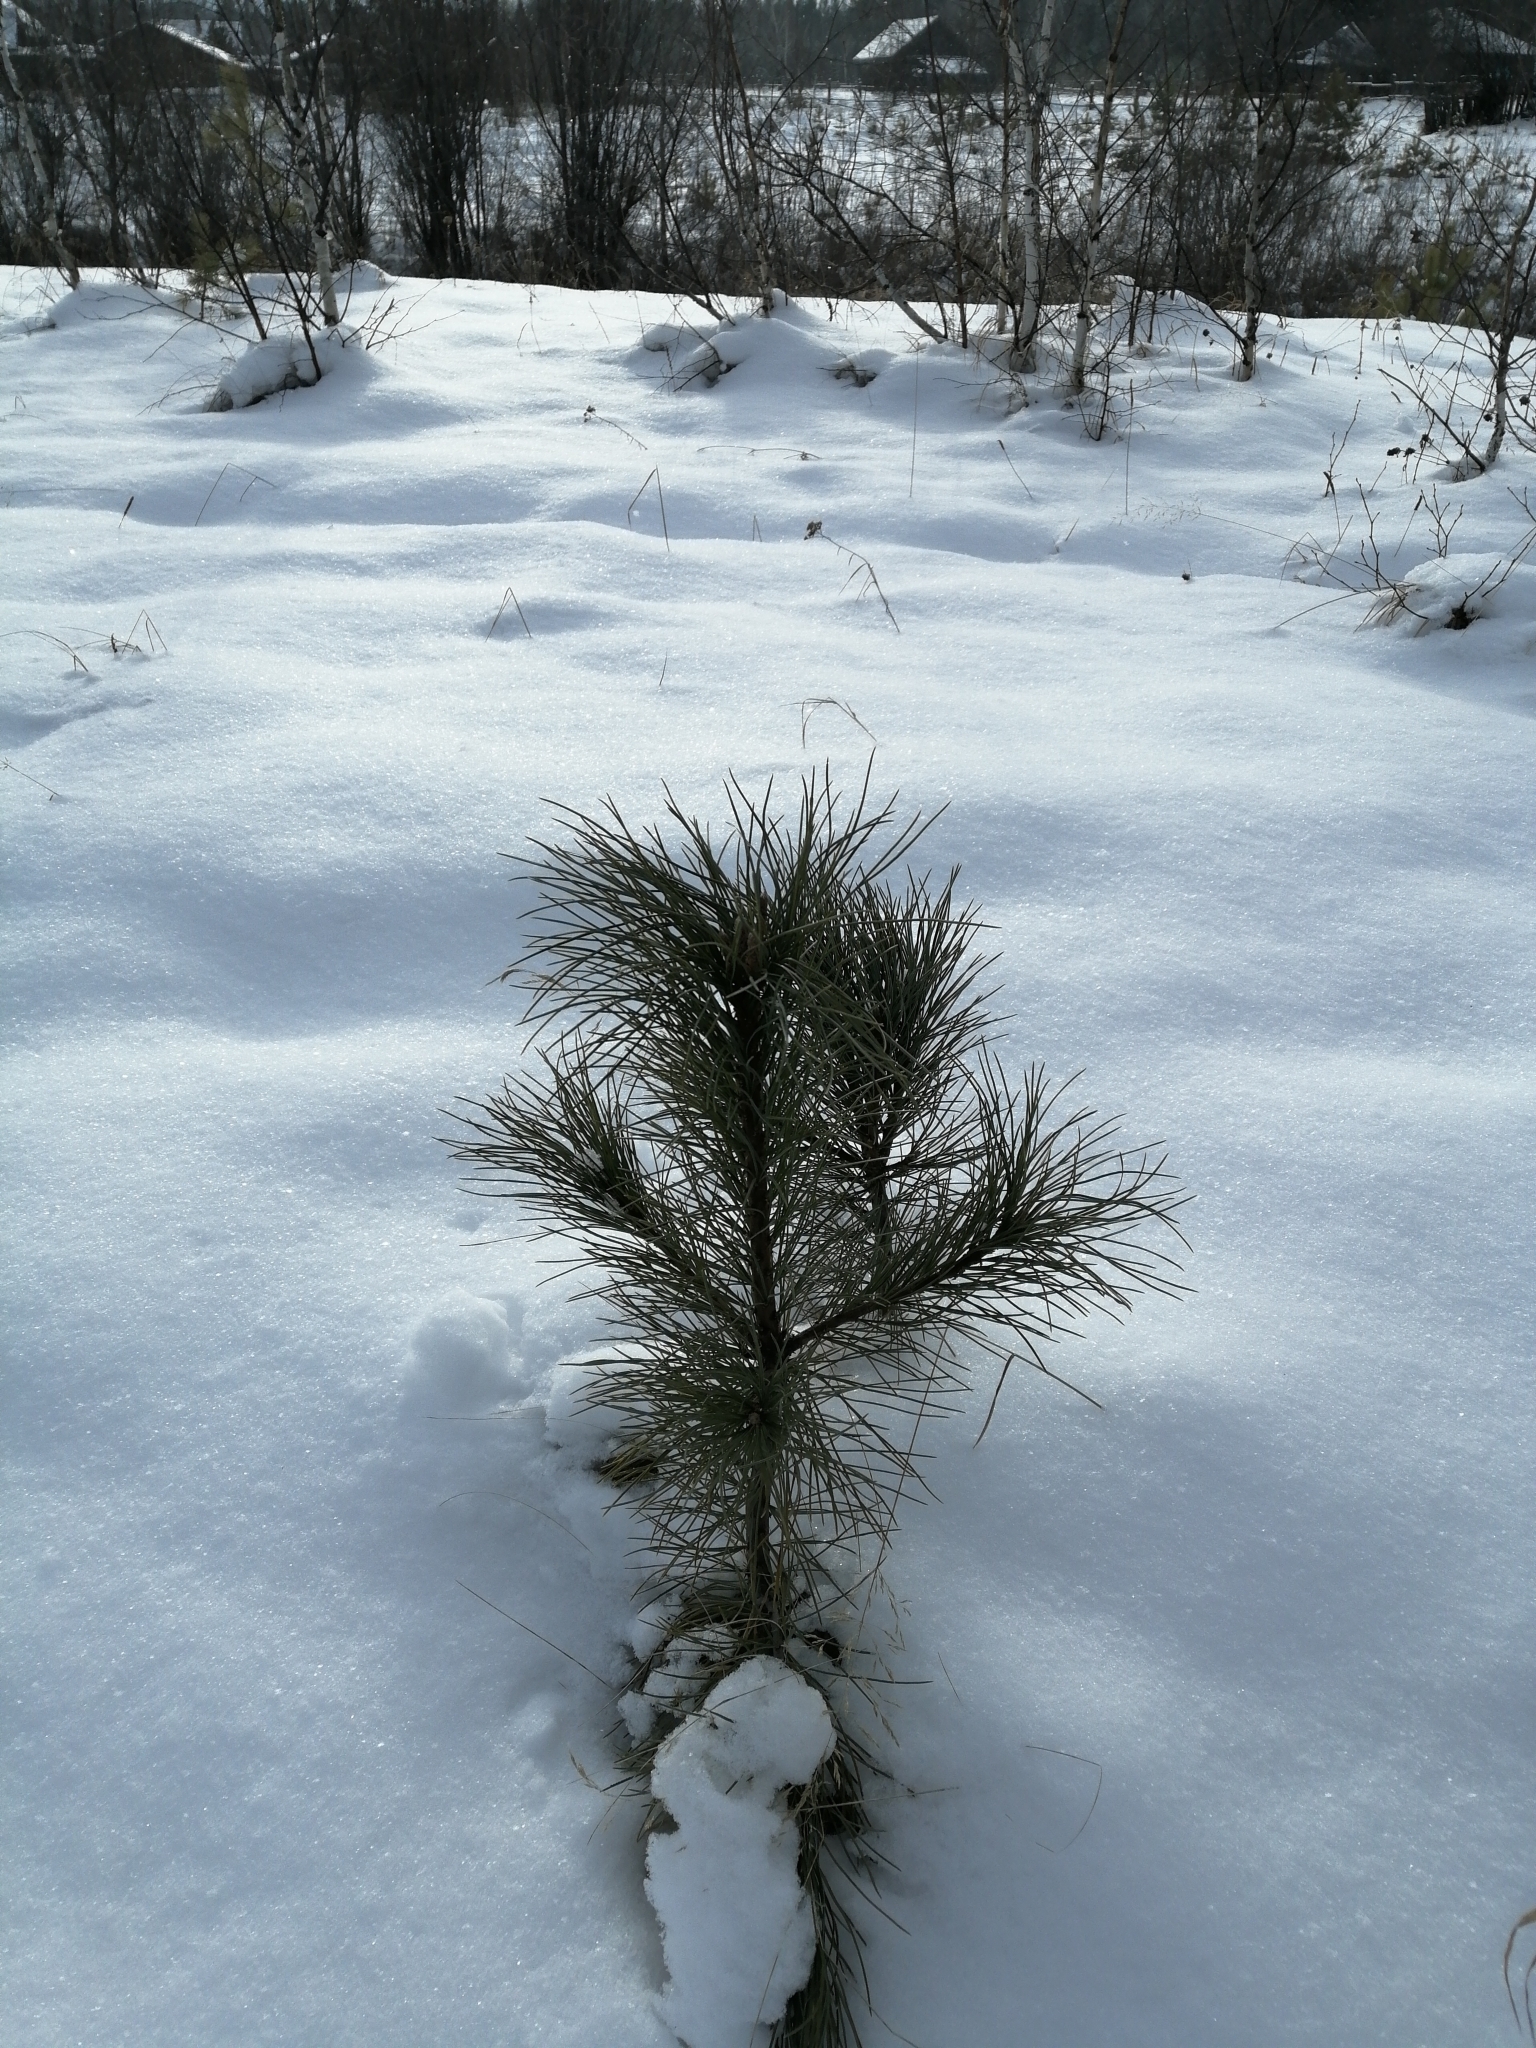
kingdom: Plantae
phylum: Tracheophyta
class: Pinopsida
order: Pinales
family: Pinaceae
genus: Pinus
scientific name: Pinus sibirica
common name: Siberian pine
